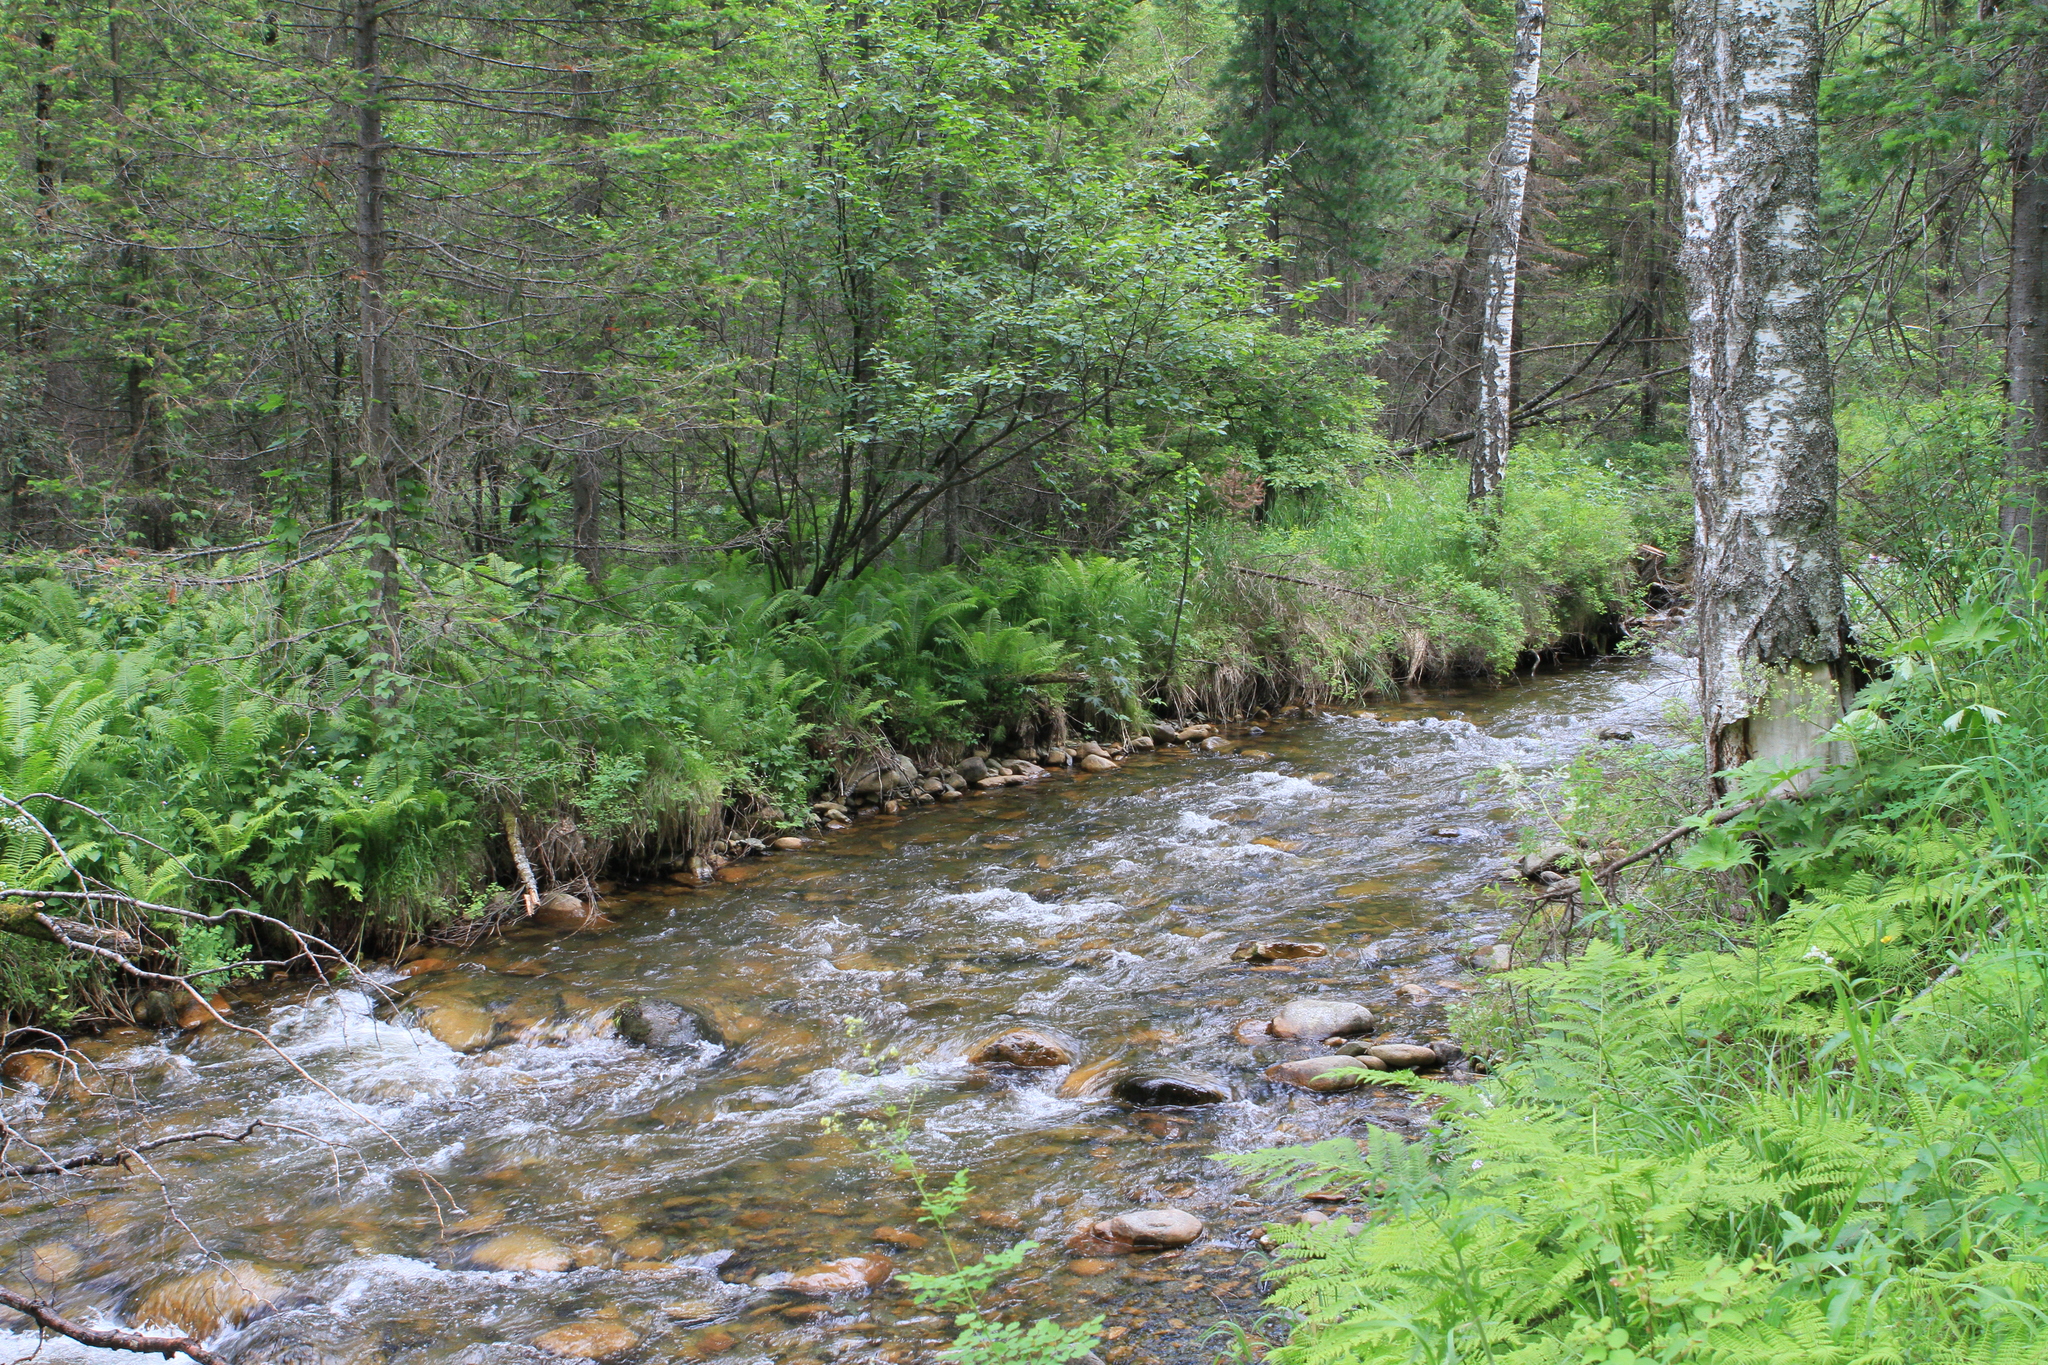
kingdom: Plantae
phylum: Tracheophyta
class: Polypodiopsida
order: Polypodiales
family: Onocleaceae
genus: Matteuccia
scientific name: Matteuccia struthiopteris
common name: Ostrich fern
